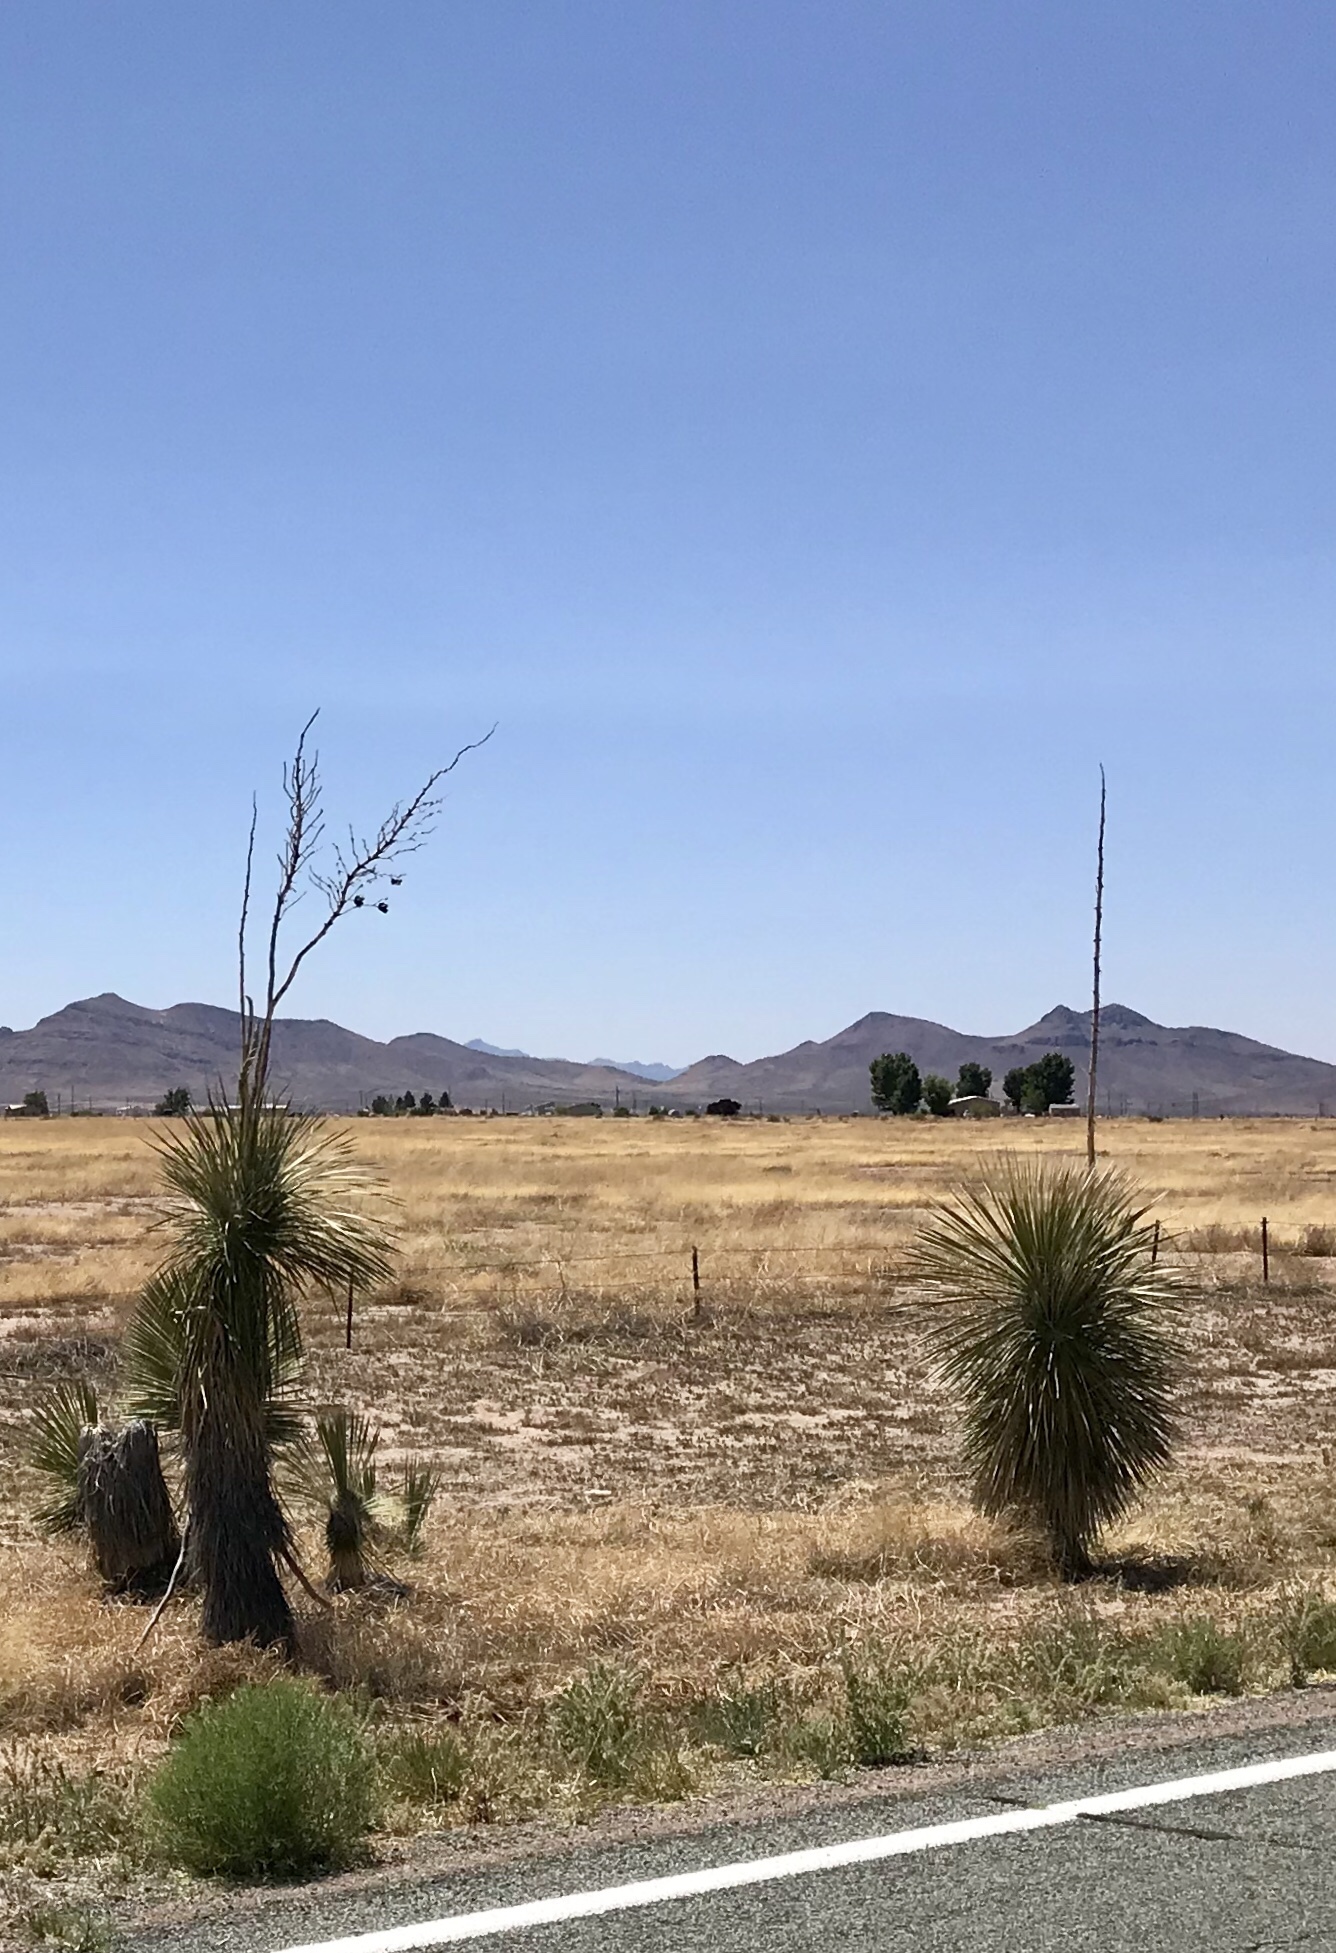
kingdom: Plantae
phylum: Tracheophyta
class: Liliopsida
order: Asparagales
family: Asparagaceae
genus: Yucca
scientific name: Yucca elata
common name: Palmella
